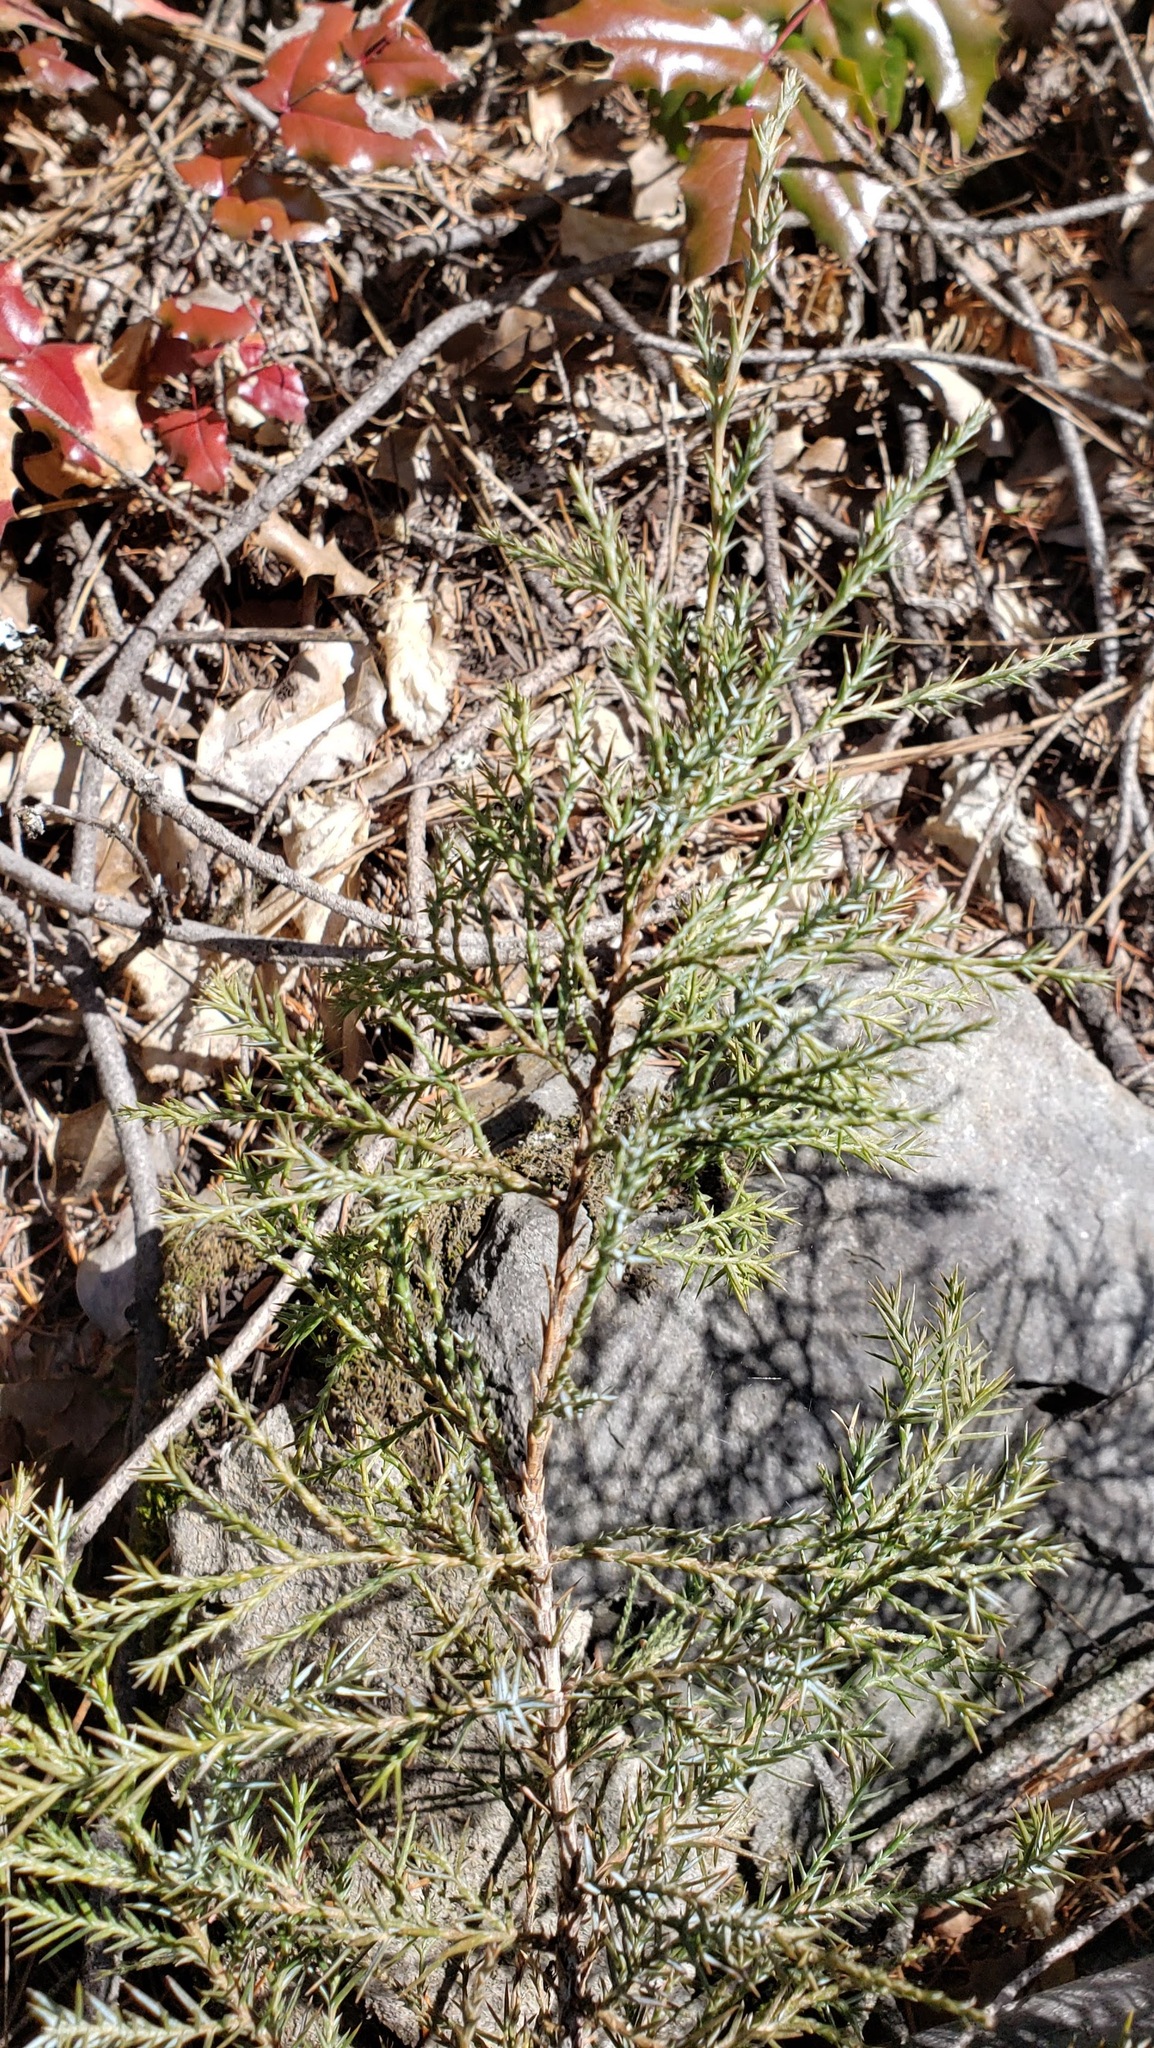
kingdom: Plantae
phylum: Tracheophyta
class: Pinopsida
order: Pinales
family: Cupressaceae
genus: Juniperus
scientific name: Juniperus scopulorum
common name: Rocky mountain juniper
